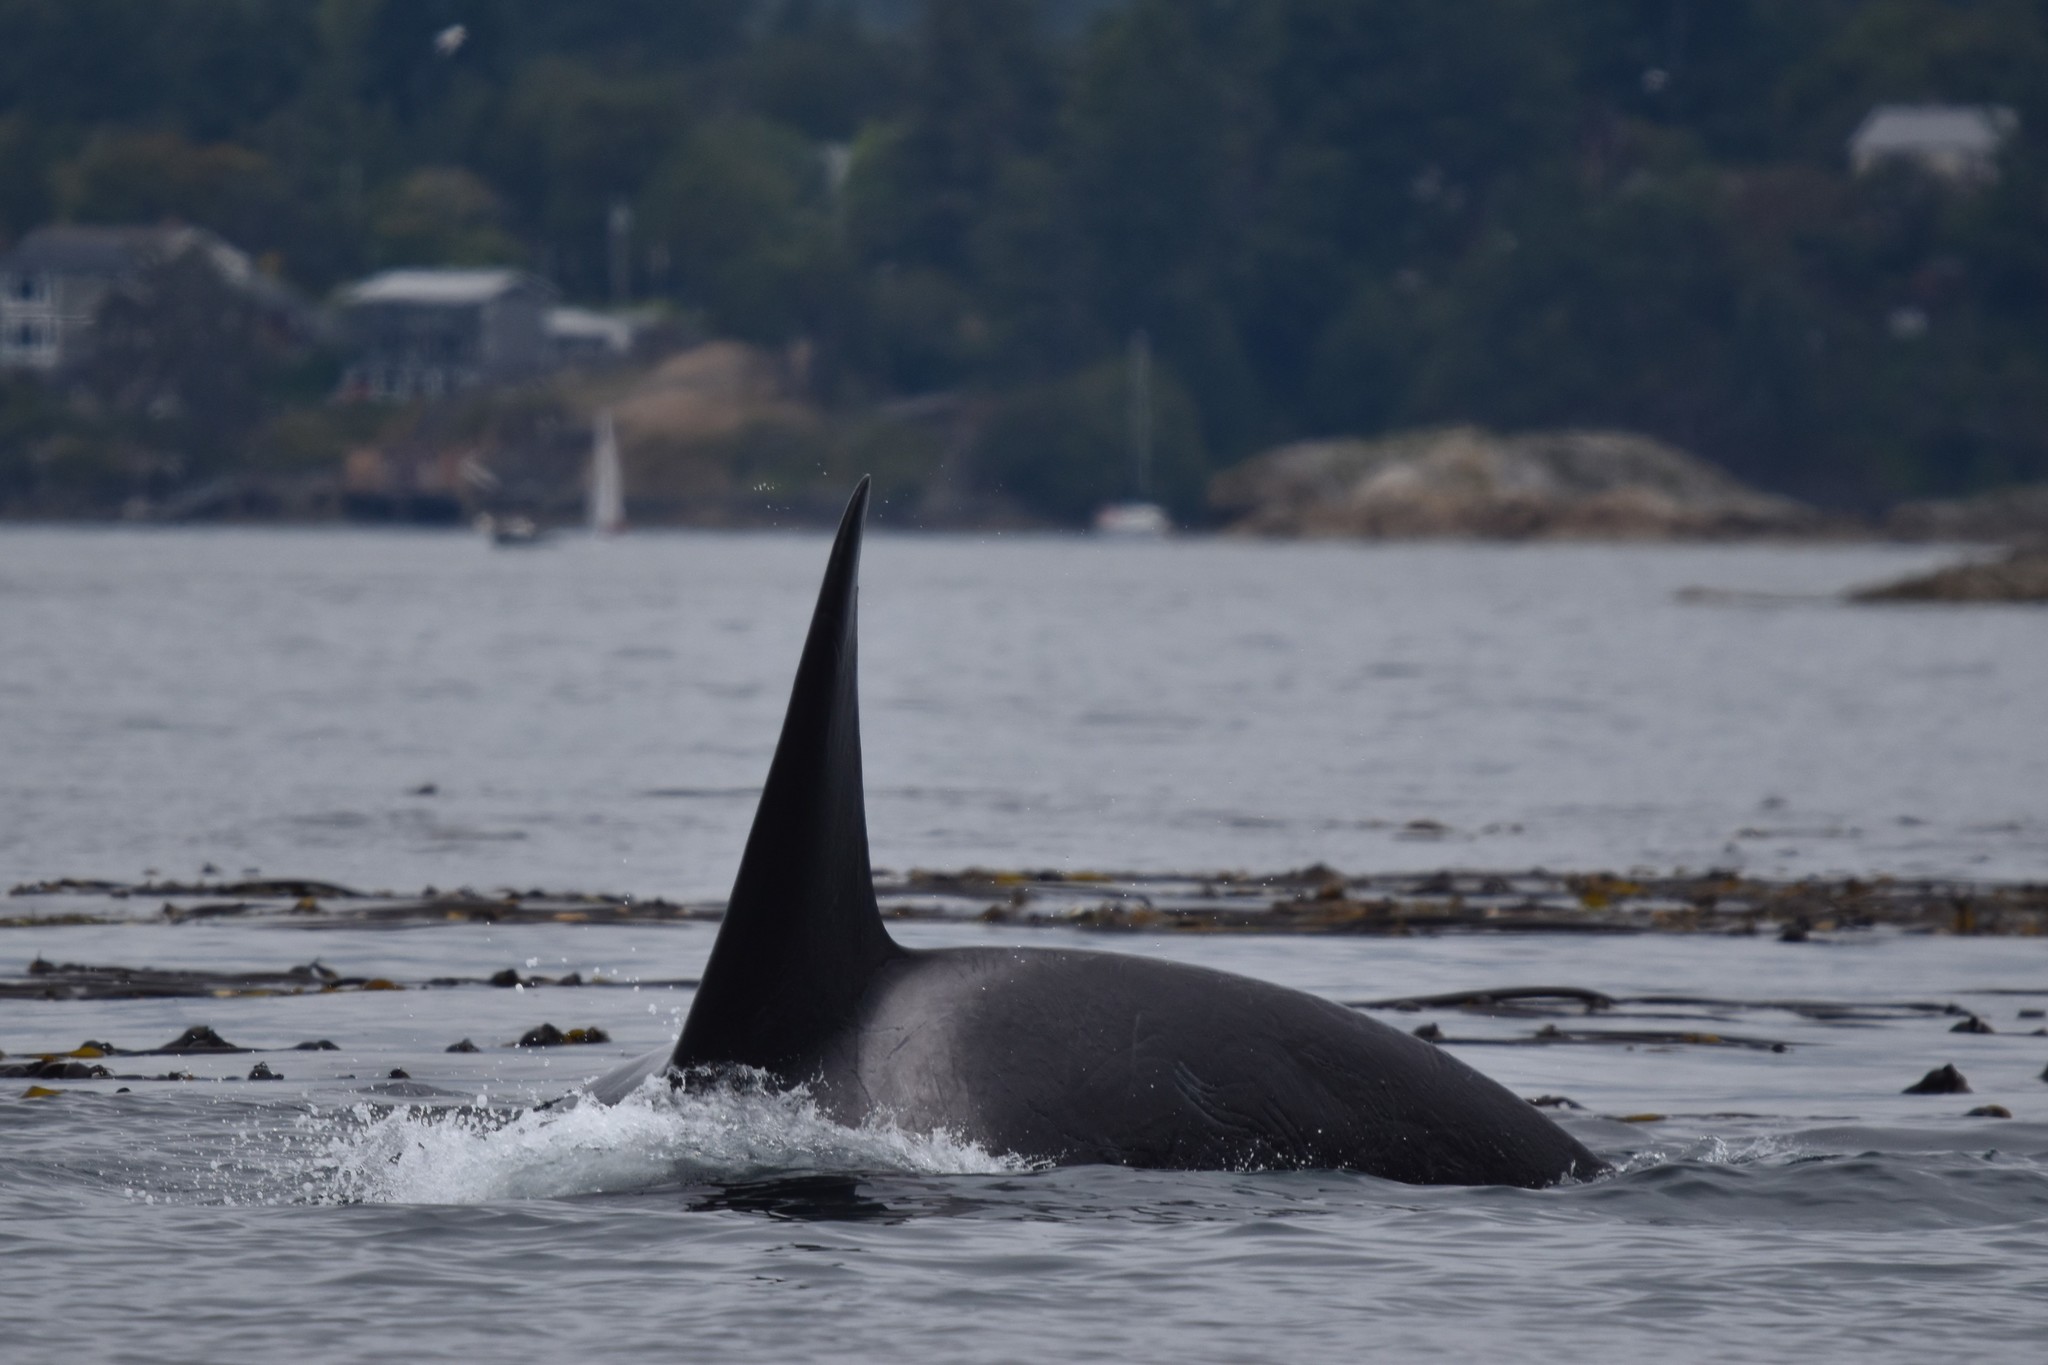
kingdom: Animalia
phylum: Chordata
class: Mammalia
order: Cetacea
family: Delphinidae
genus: Orcinus
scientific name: Orcinus orca
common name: Killer whale
